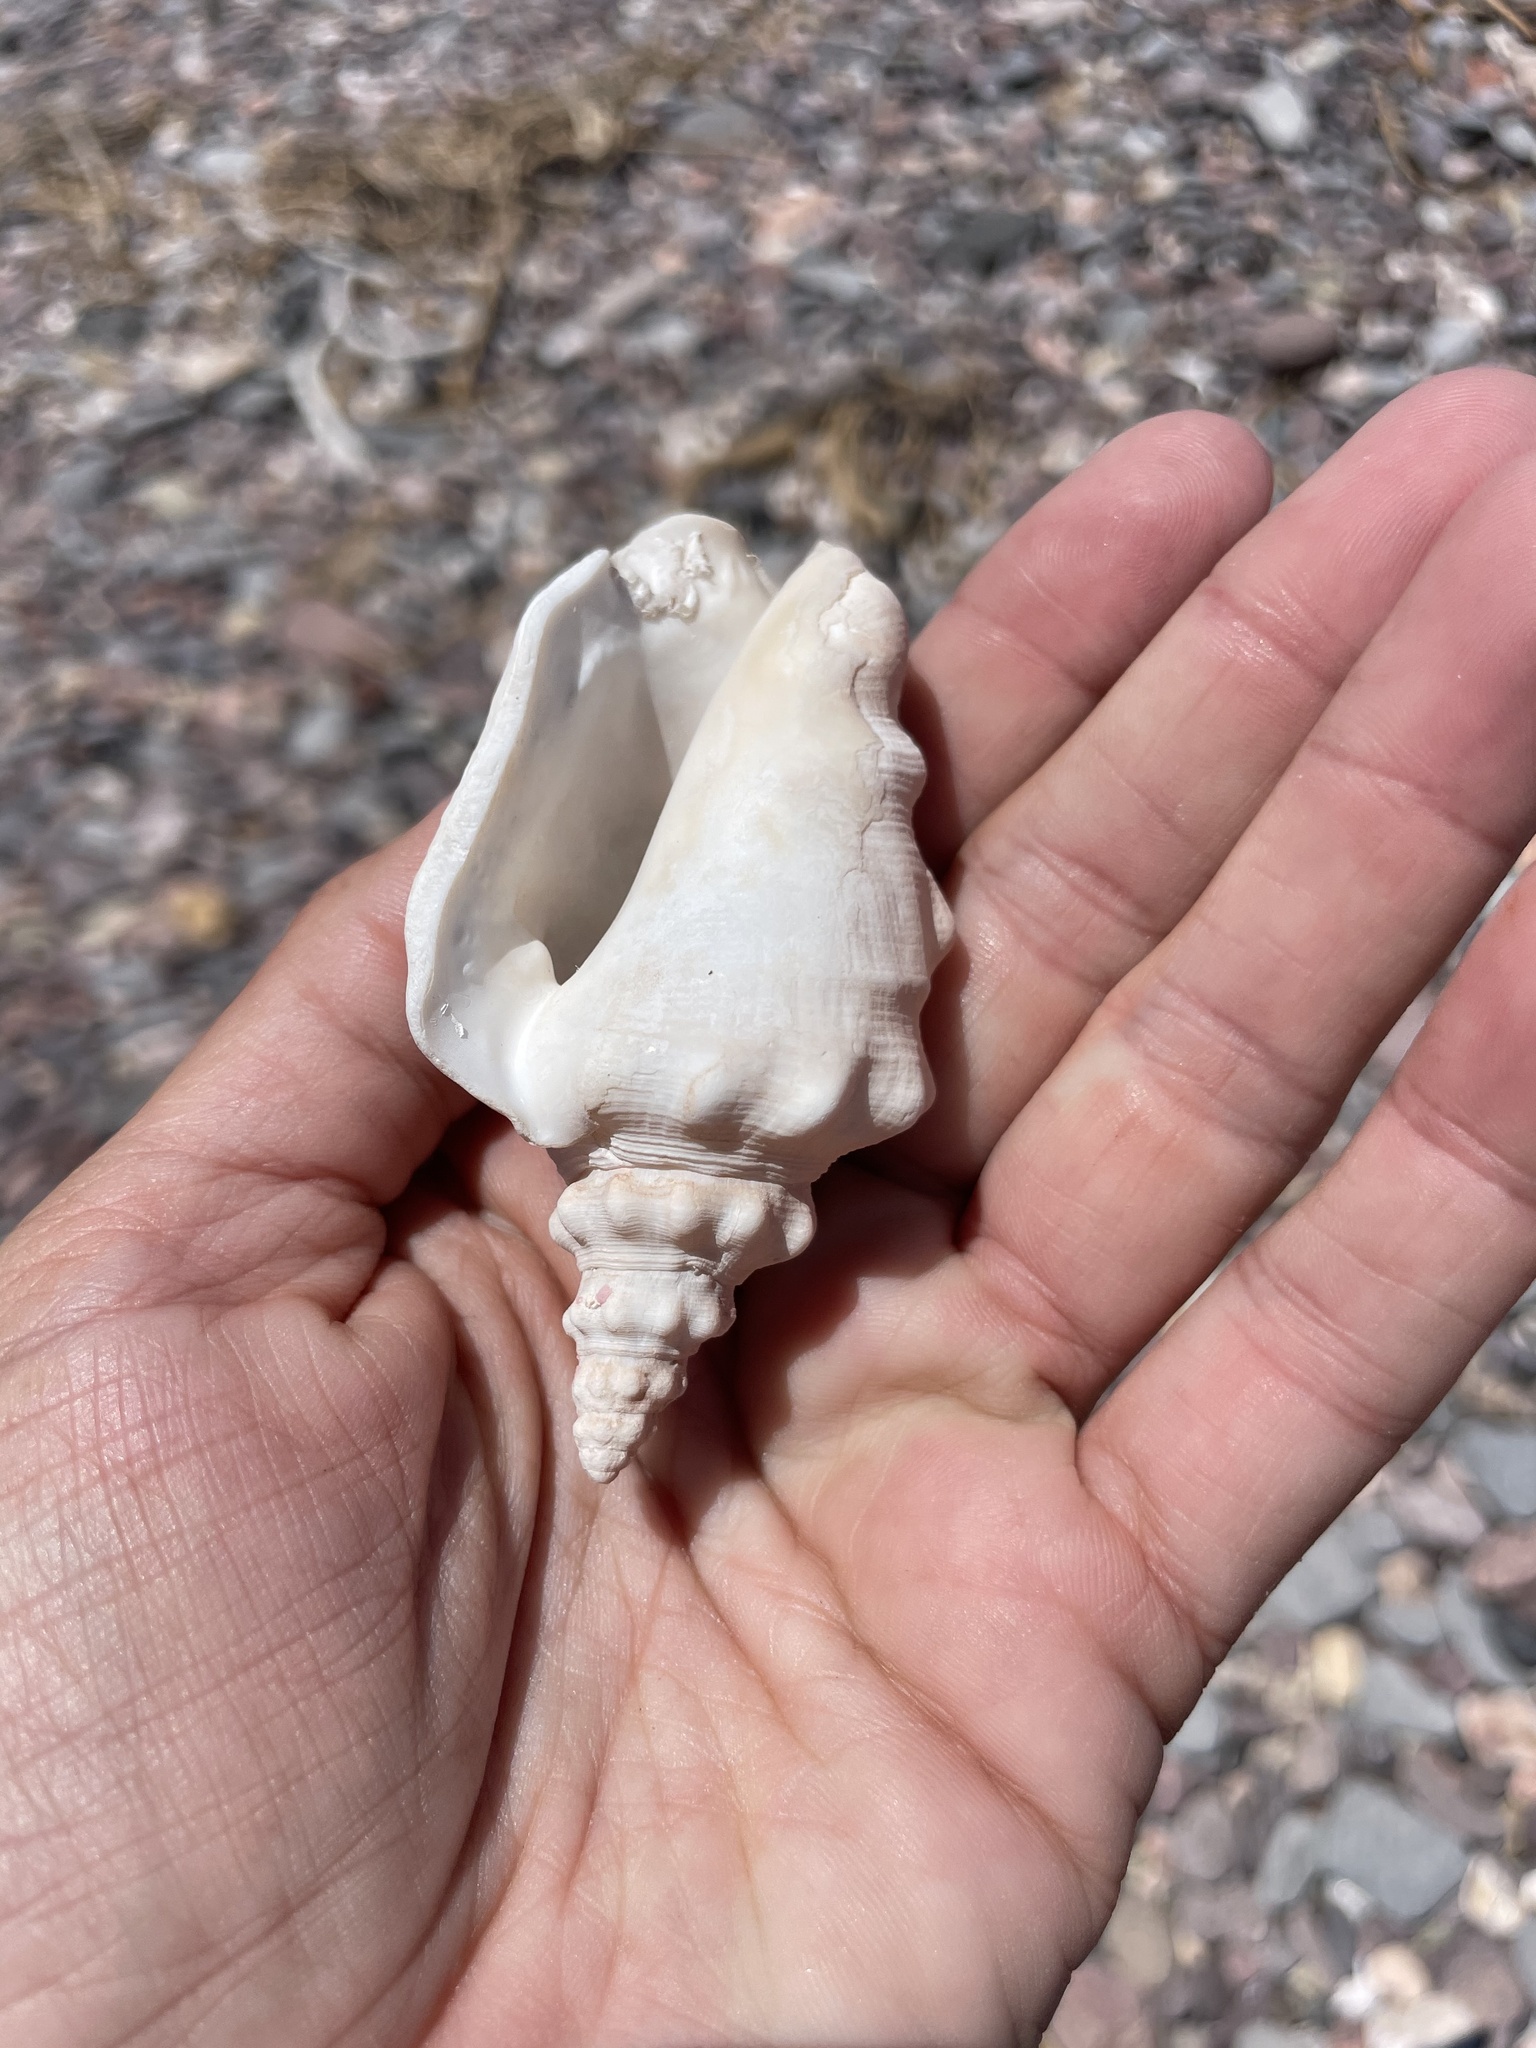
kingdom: Animalia
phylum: Mollusca
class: Gastropoda
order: Littorinimorpha
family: Strombidae
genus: Persististrombus
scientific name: Persististrombus granulatus
